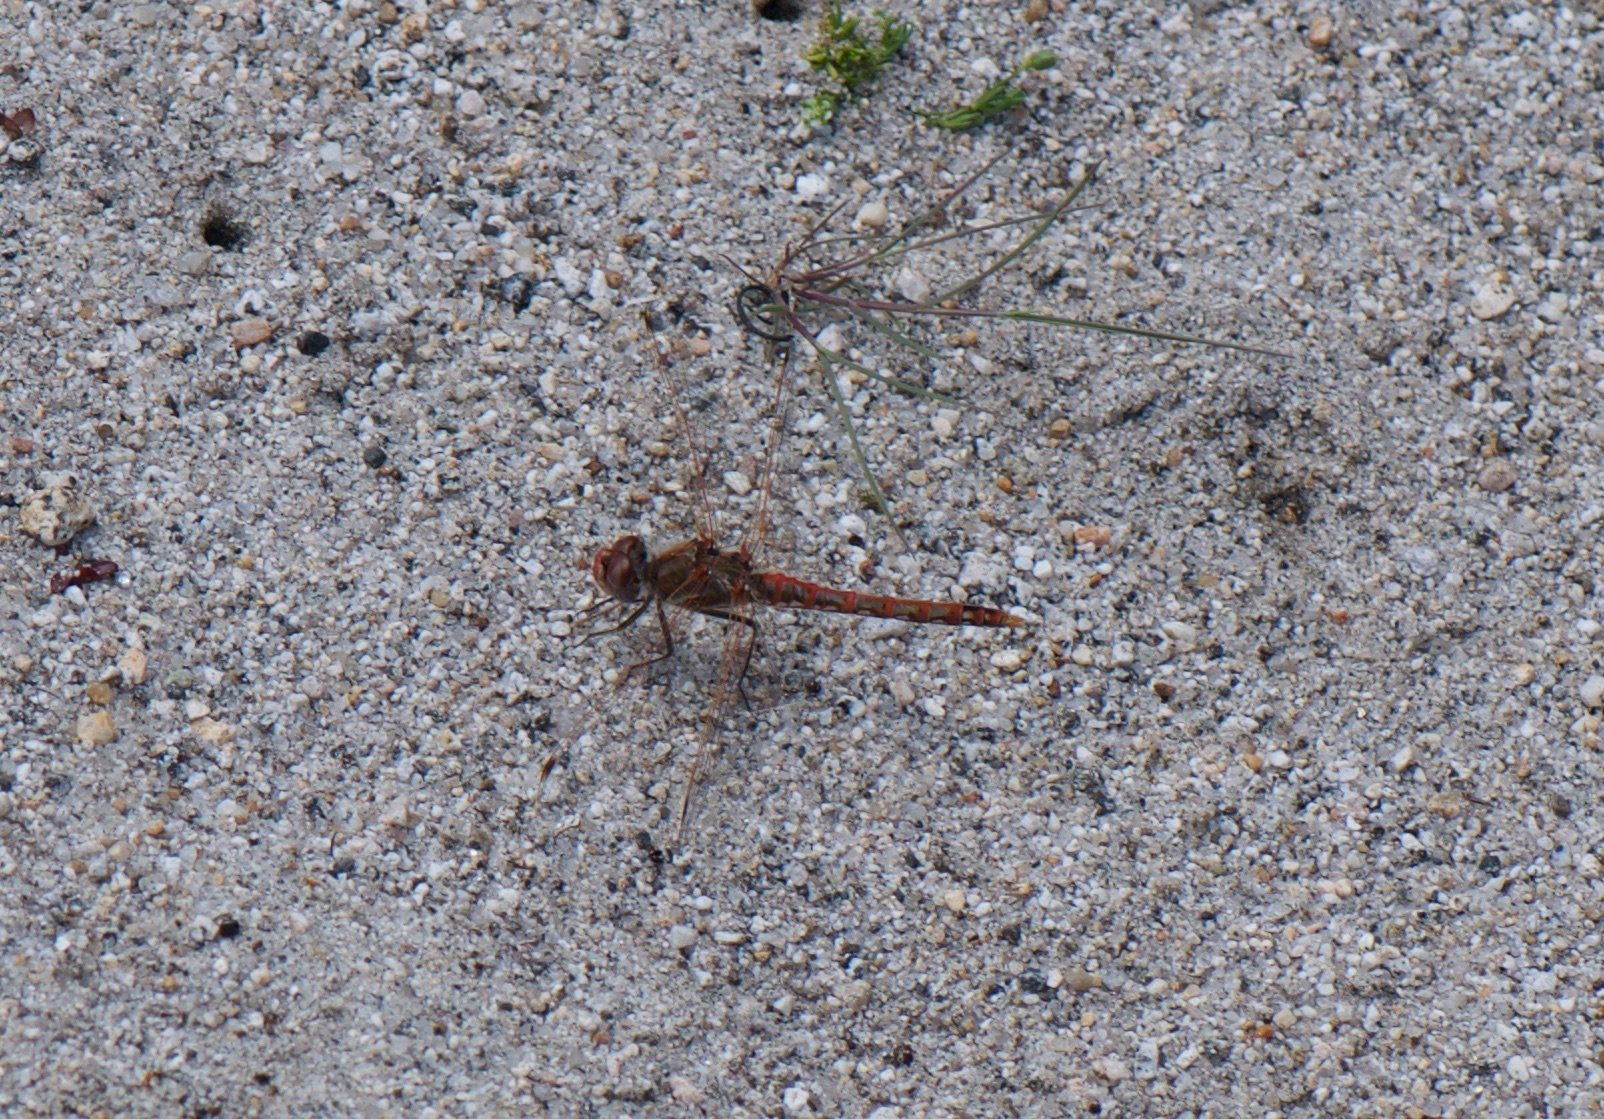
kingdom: Animalia
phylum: Arthropoda
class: Insecta
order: Odonata
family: Libellulidae
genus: Sympetrum
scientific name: Sympetrum corruptum
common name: Variegated meadowhawk
